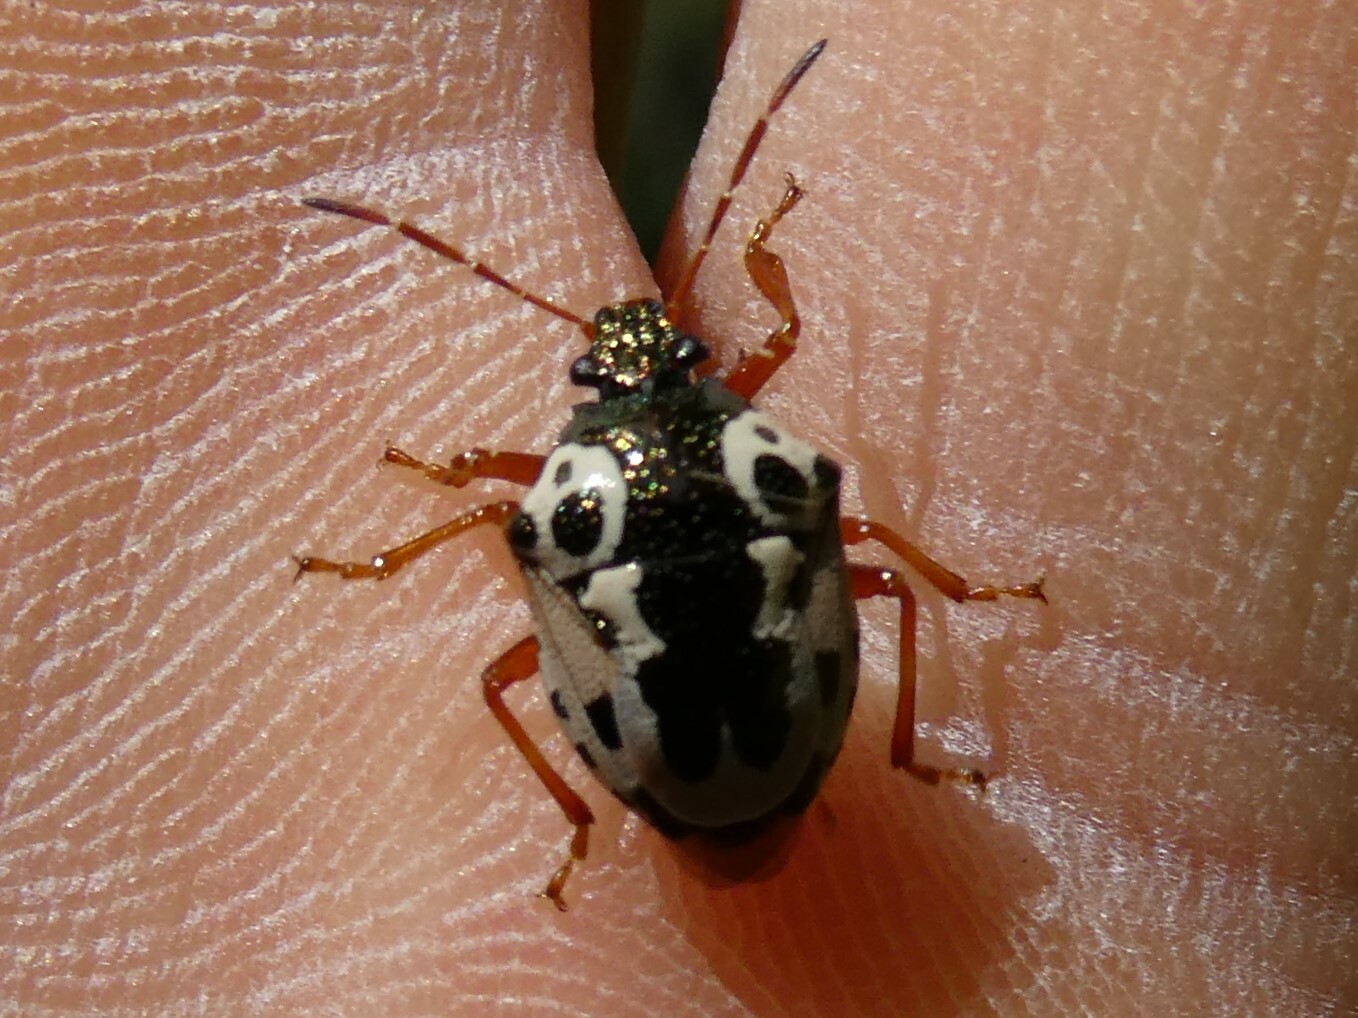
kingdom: Animalia
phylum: Arthropoda
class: Insecta
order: Hemiptera
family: Pentatomidae
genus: Stiretrus
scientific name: Stiretrus anchorago
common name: Anchor stink bug
